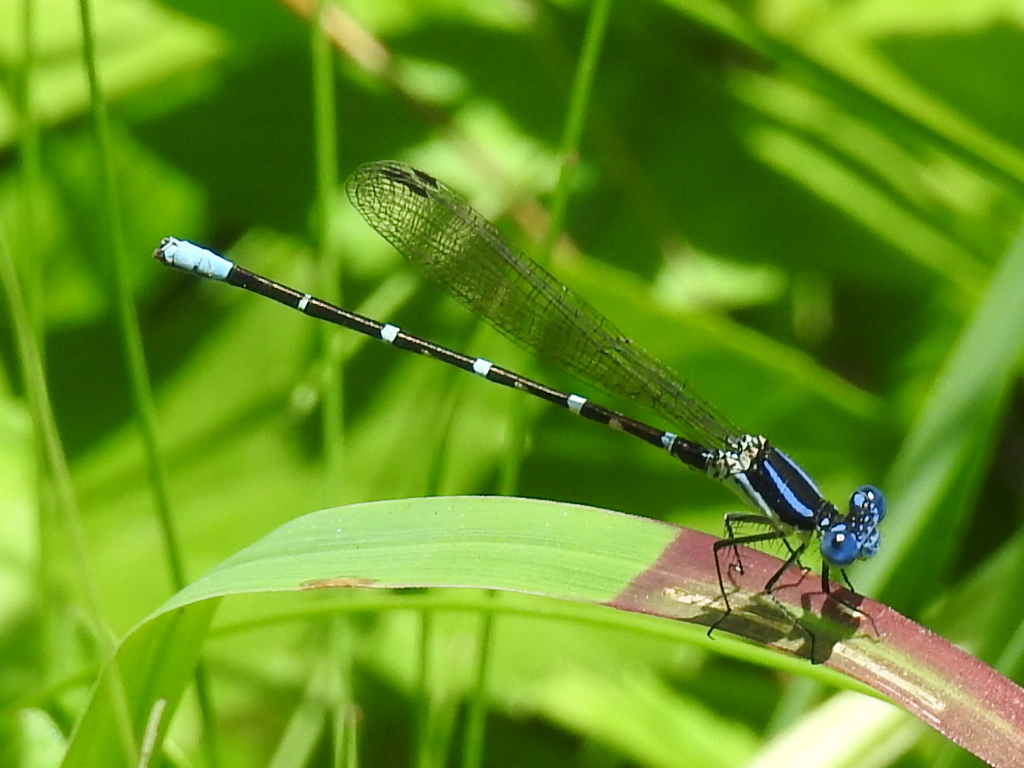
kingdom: Animalia
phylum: Arthropoda
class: Insecta
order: Odonata
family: Coenagrionidae
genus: Argia
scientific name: Argia sedula
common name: Blue-ringed dancer
